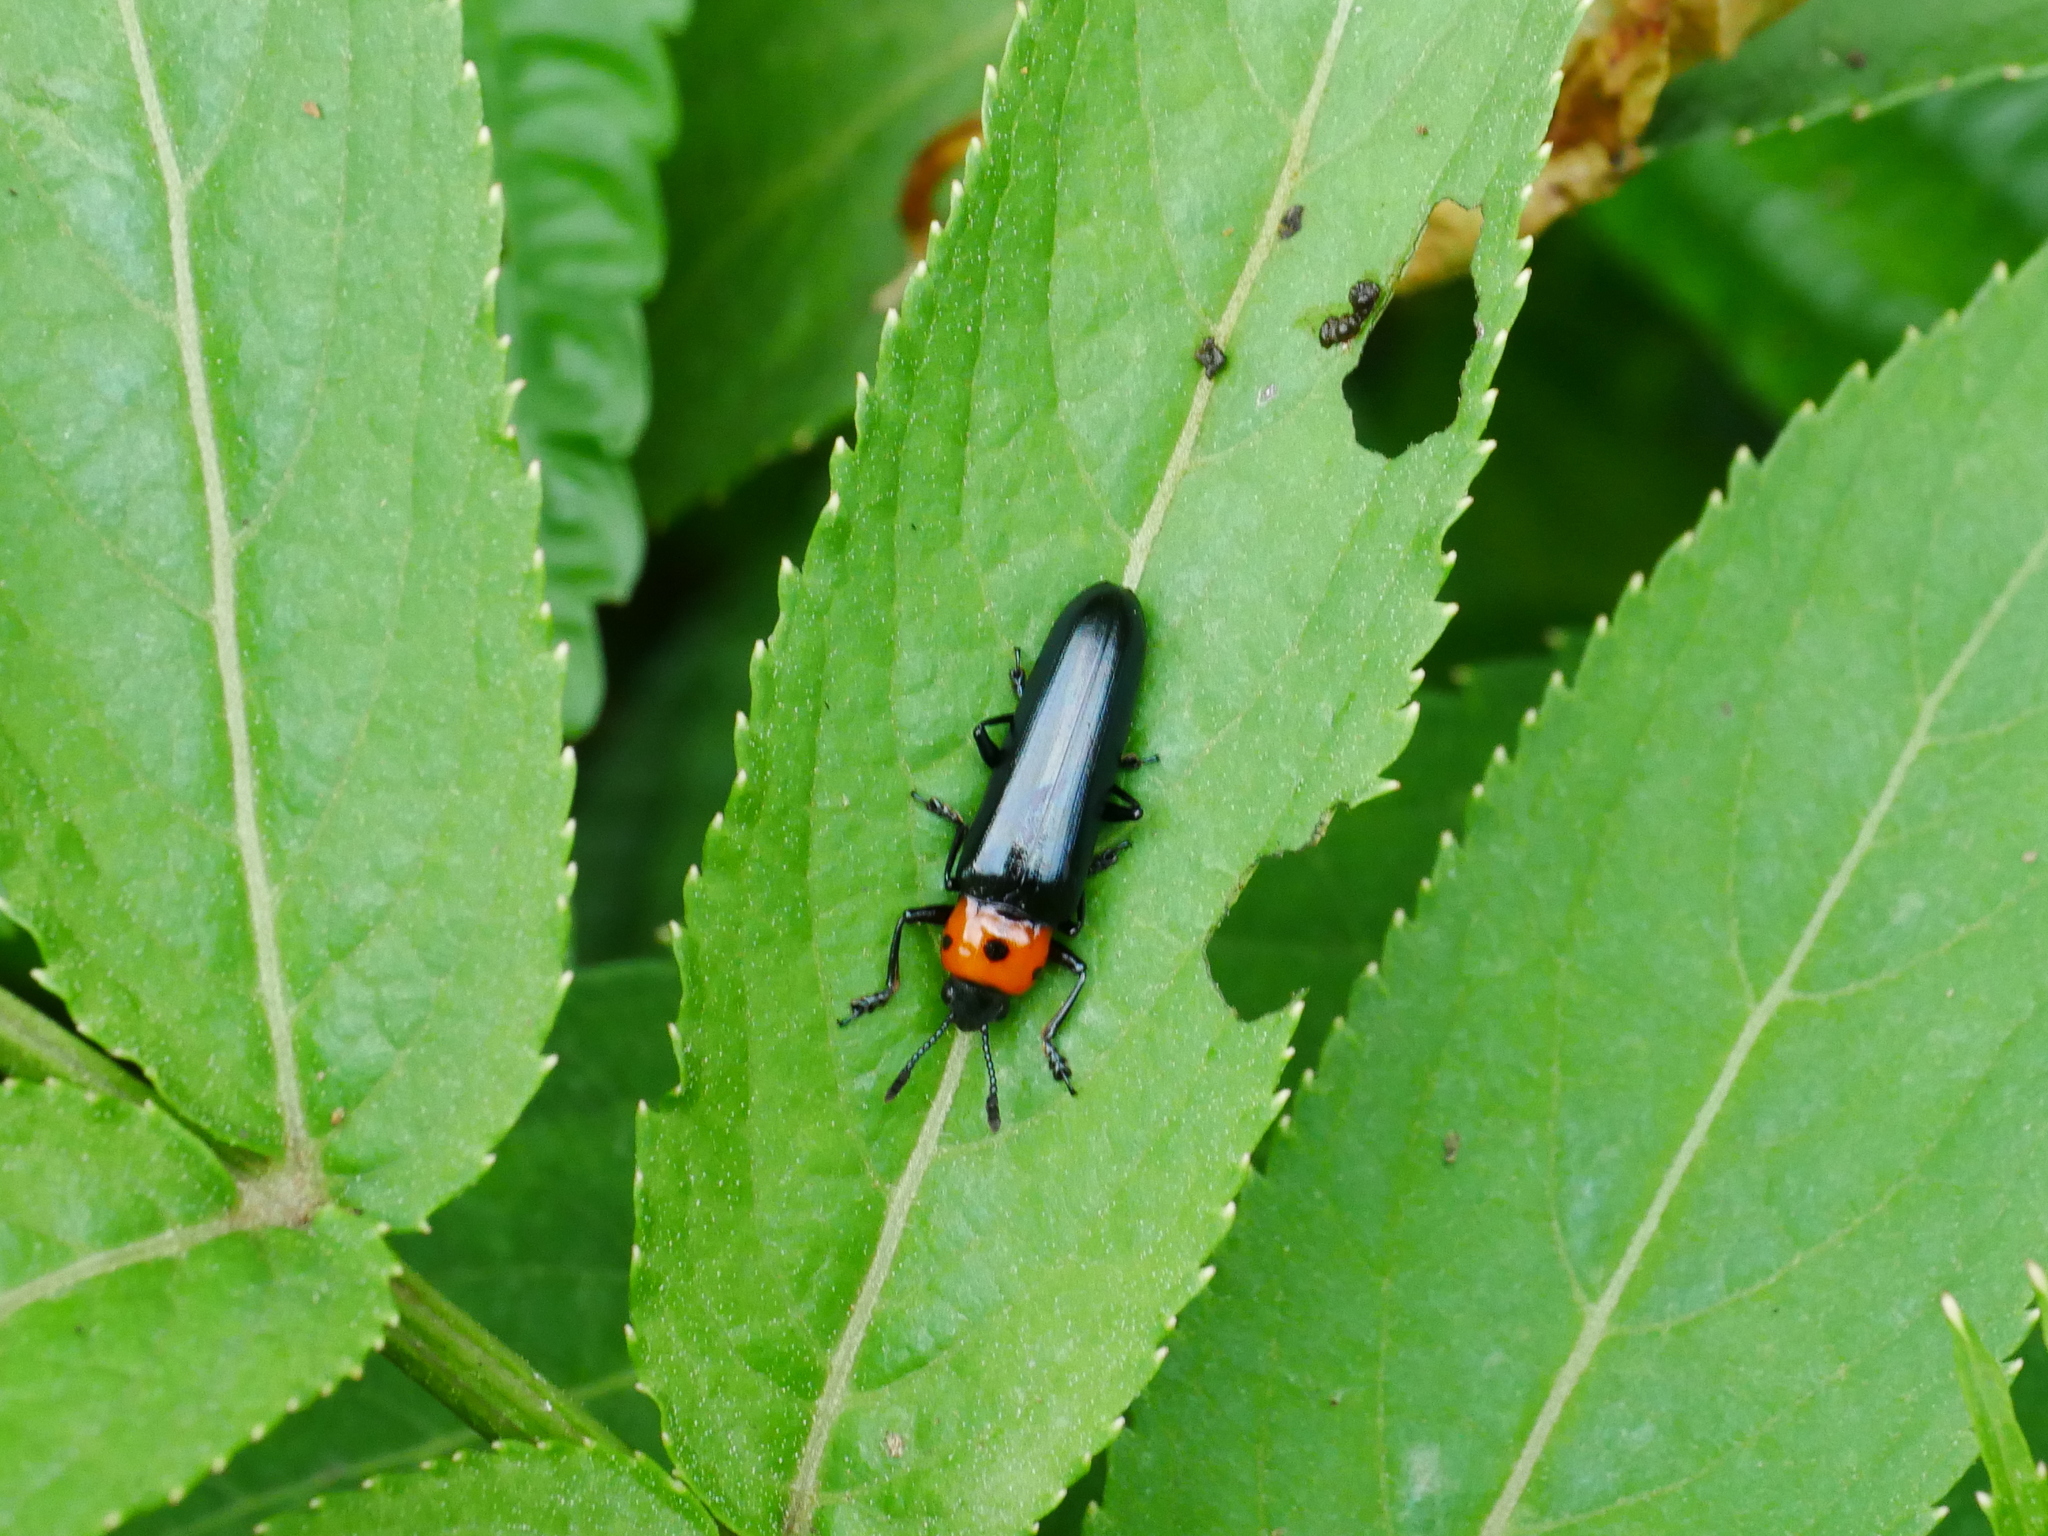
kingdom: Animalia
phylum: Arthropoda
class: Insecta
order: Coleoptera
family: Erotylidae
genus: Tetraphala
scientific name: Tetraphala collaris
